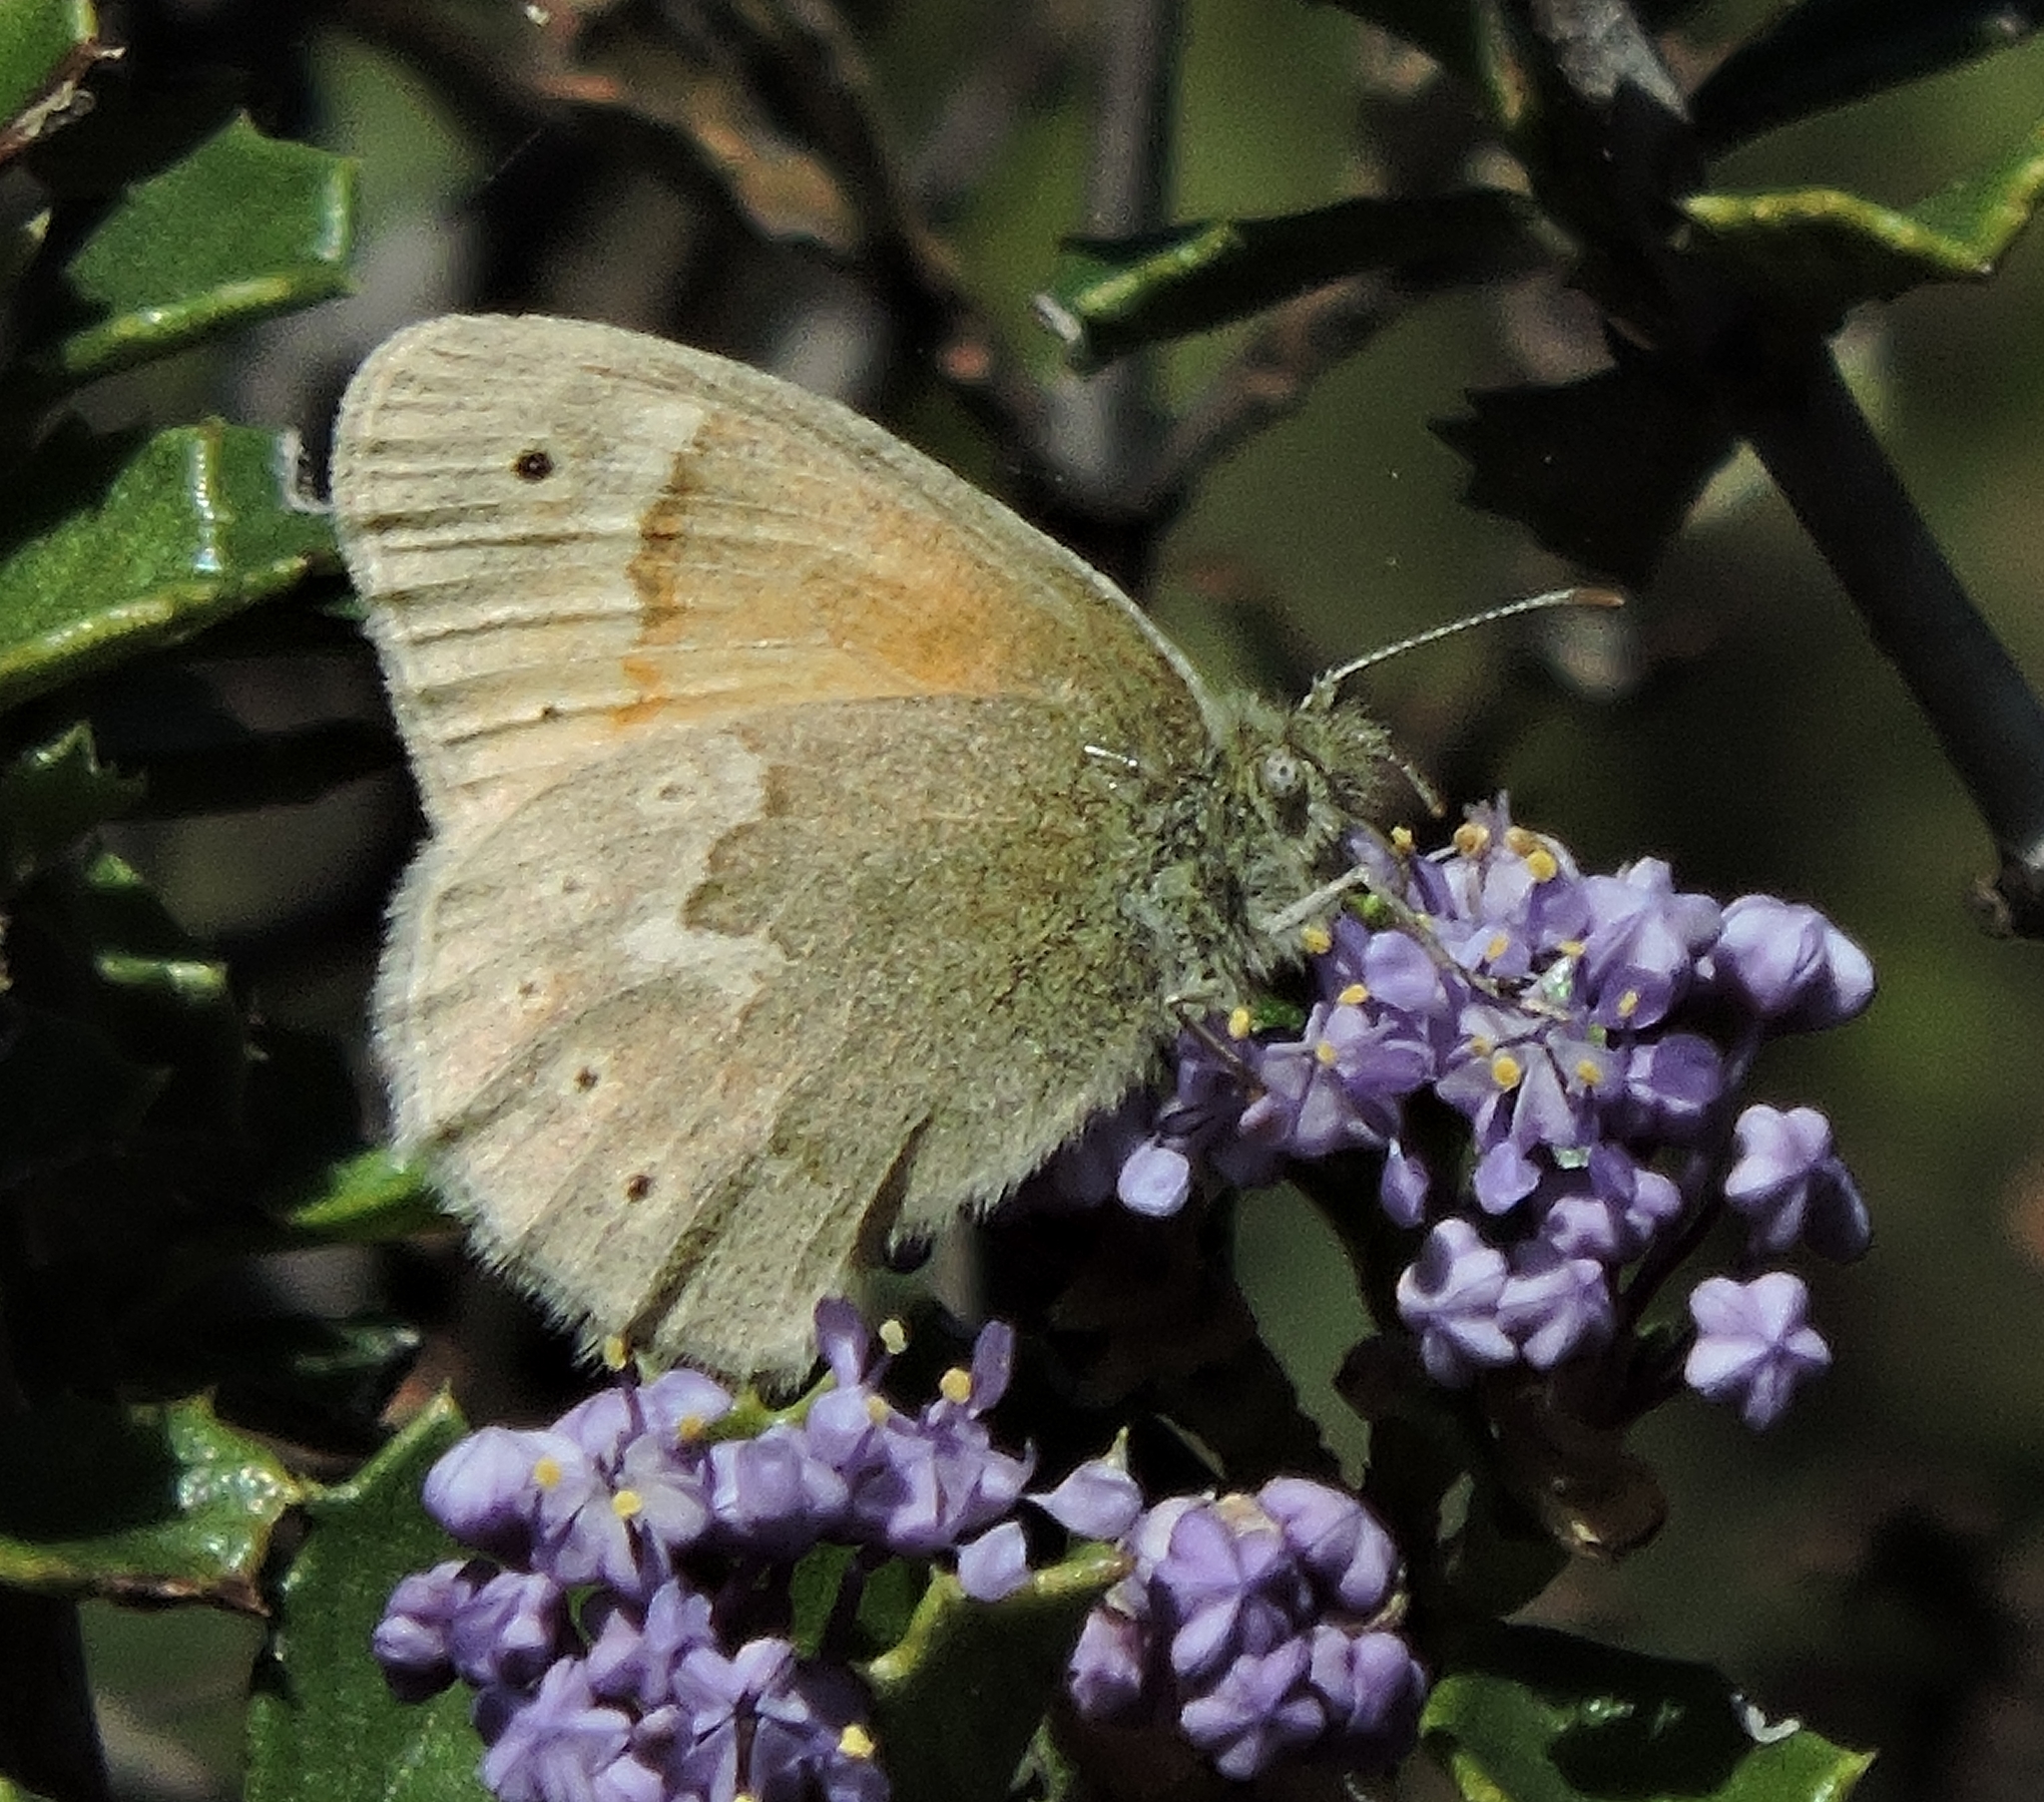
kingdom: Animalia
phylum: Arthropoda
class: Insecta
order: Lepidoptera
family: Nymphalidae
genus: Coenonympha
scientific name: Coenonympha california
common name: Common ringlet
